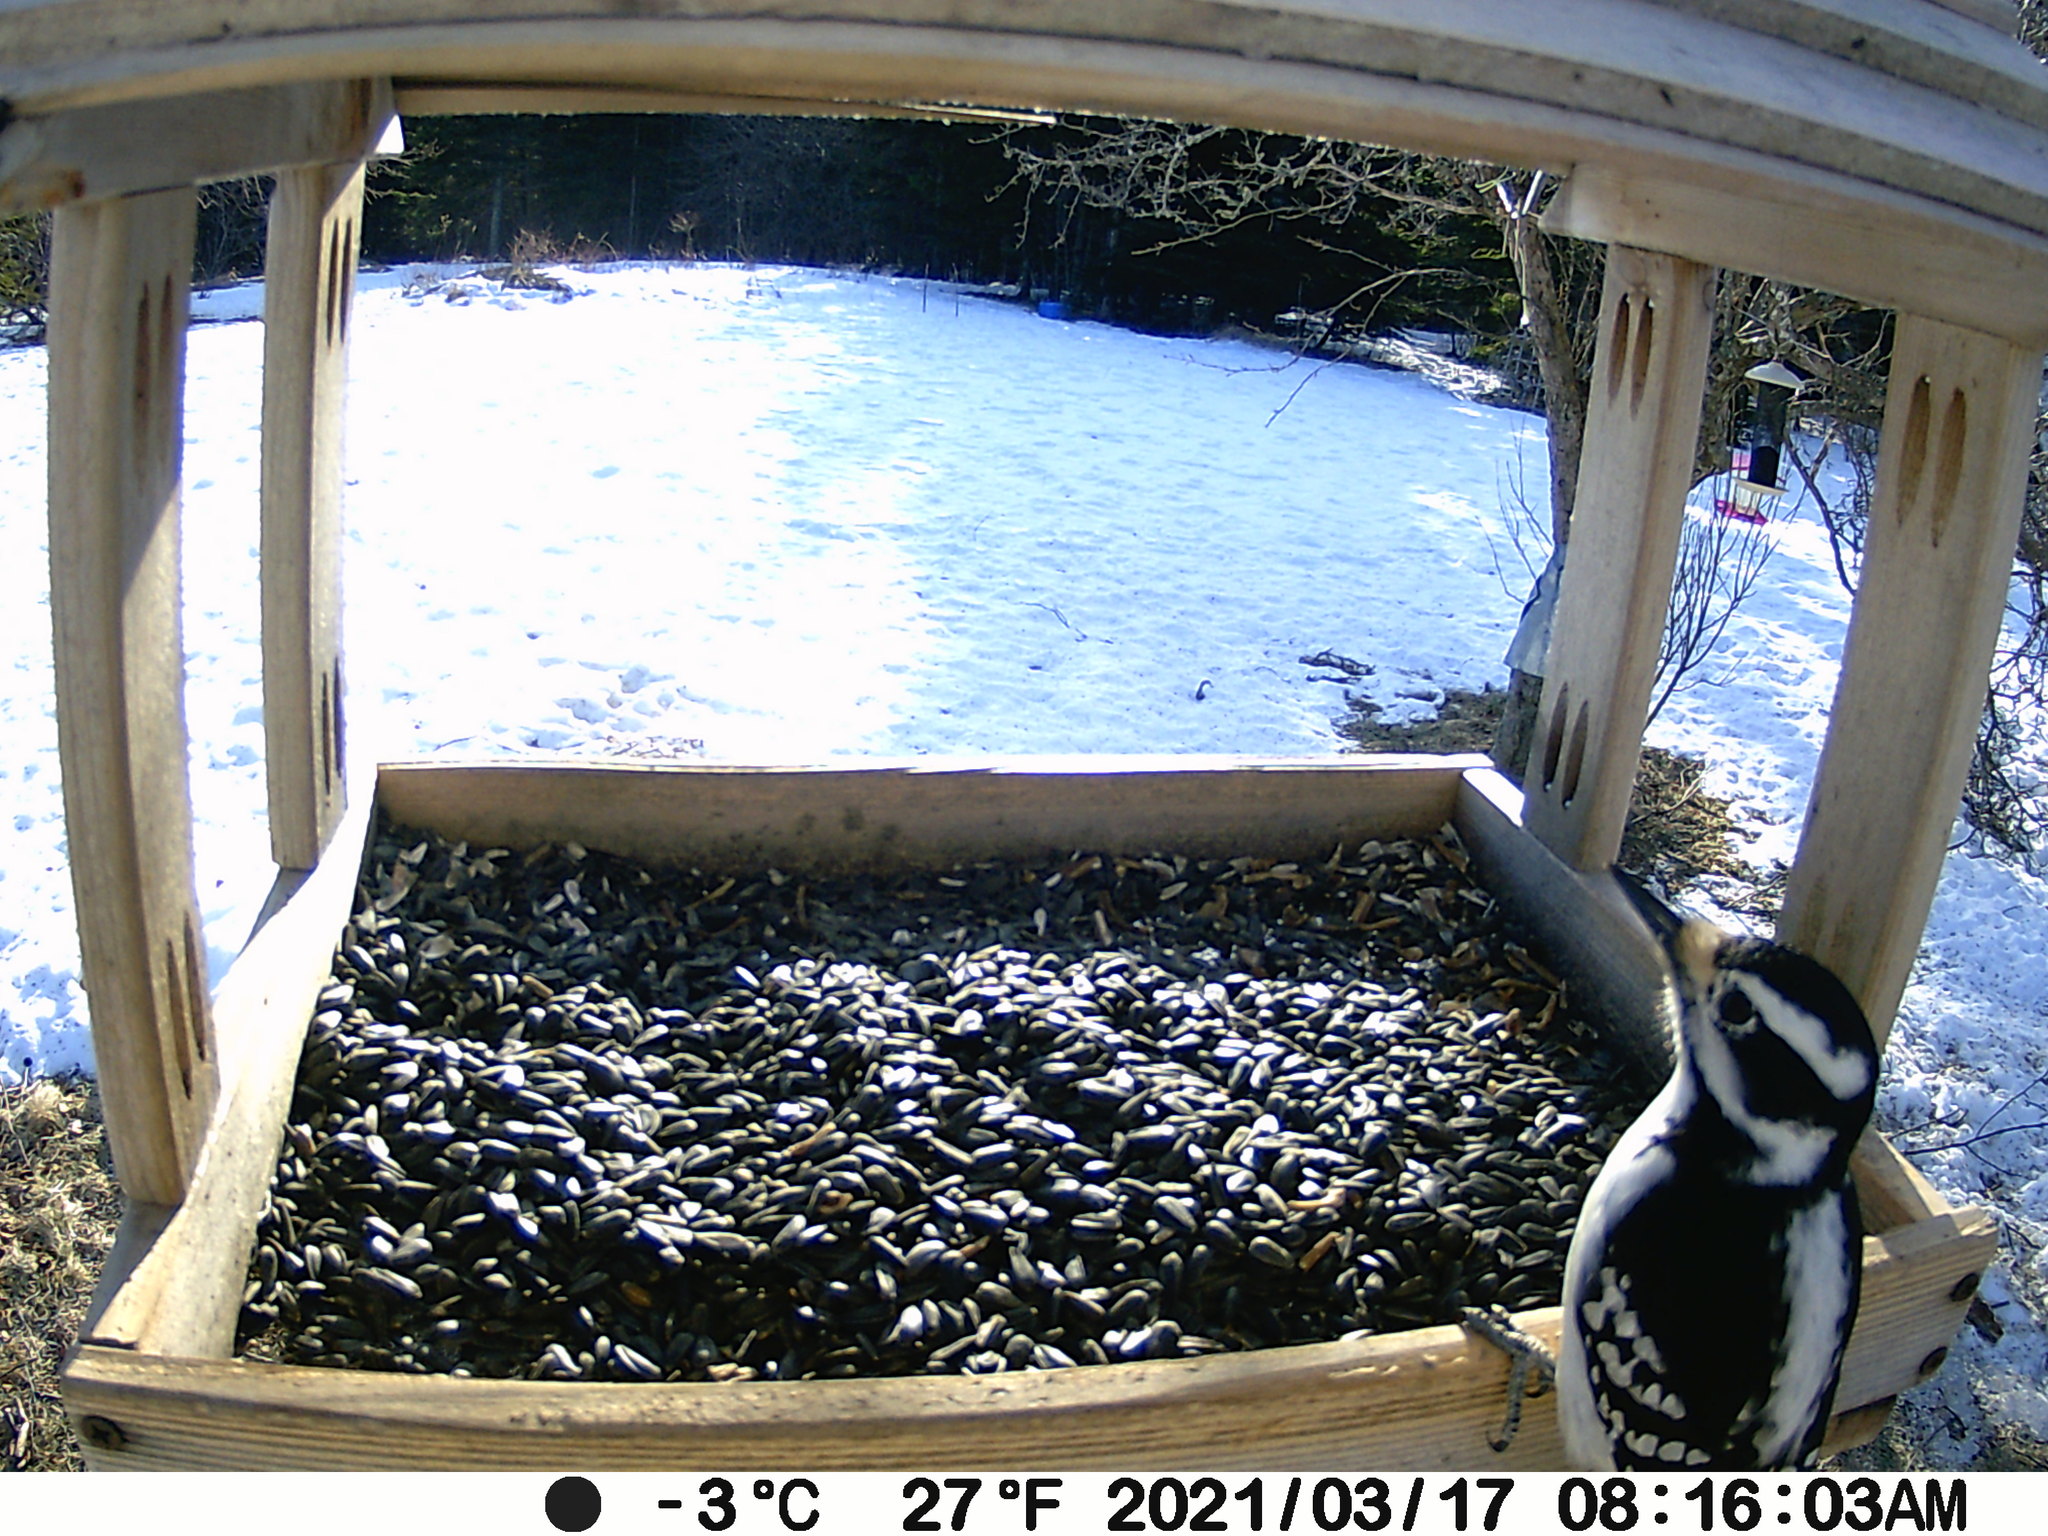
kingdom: Animalia
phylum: Chordata
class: Aves
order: Piciformes
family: Picidae
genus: Leuconotopicus
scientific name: Leuconotopicus villosus
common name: Hairy woodpecker
